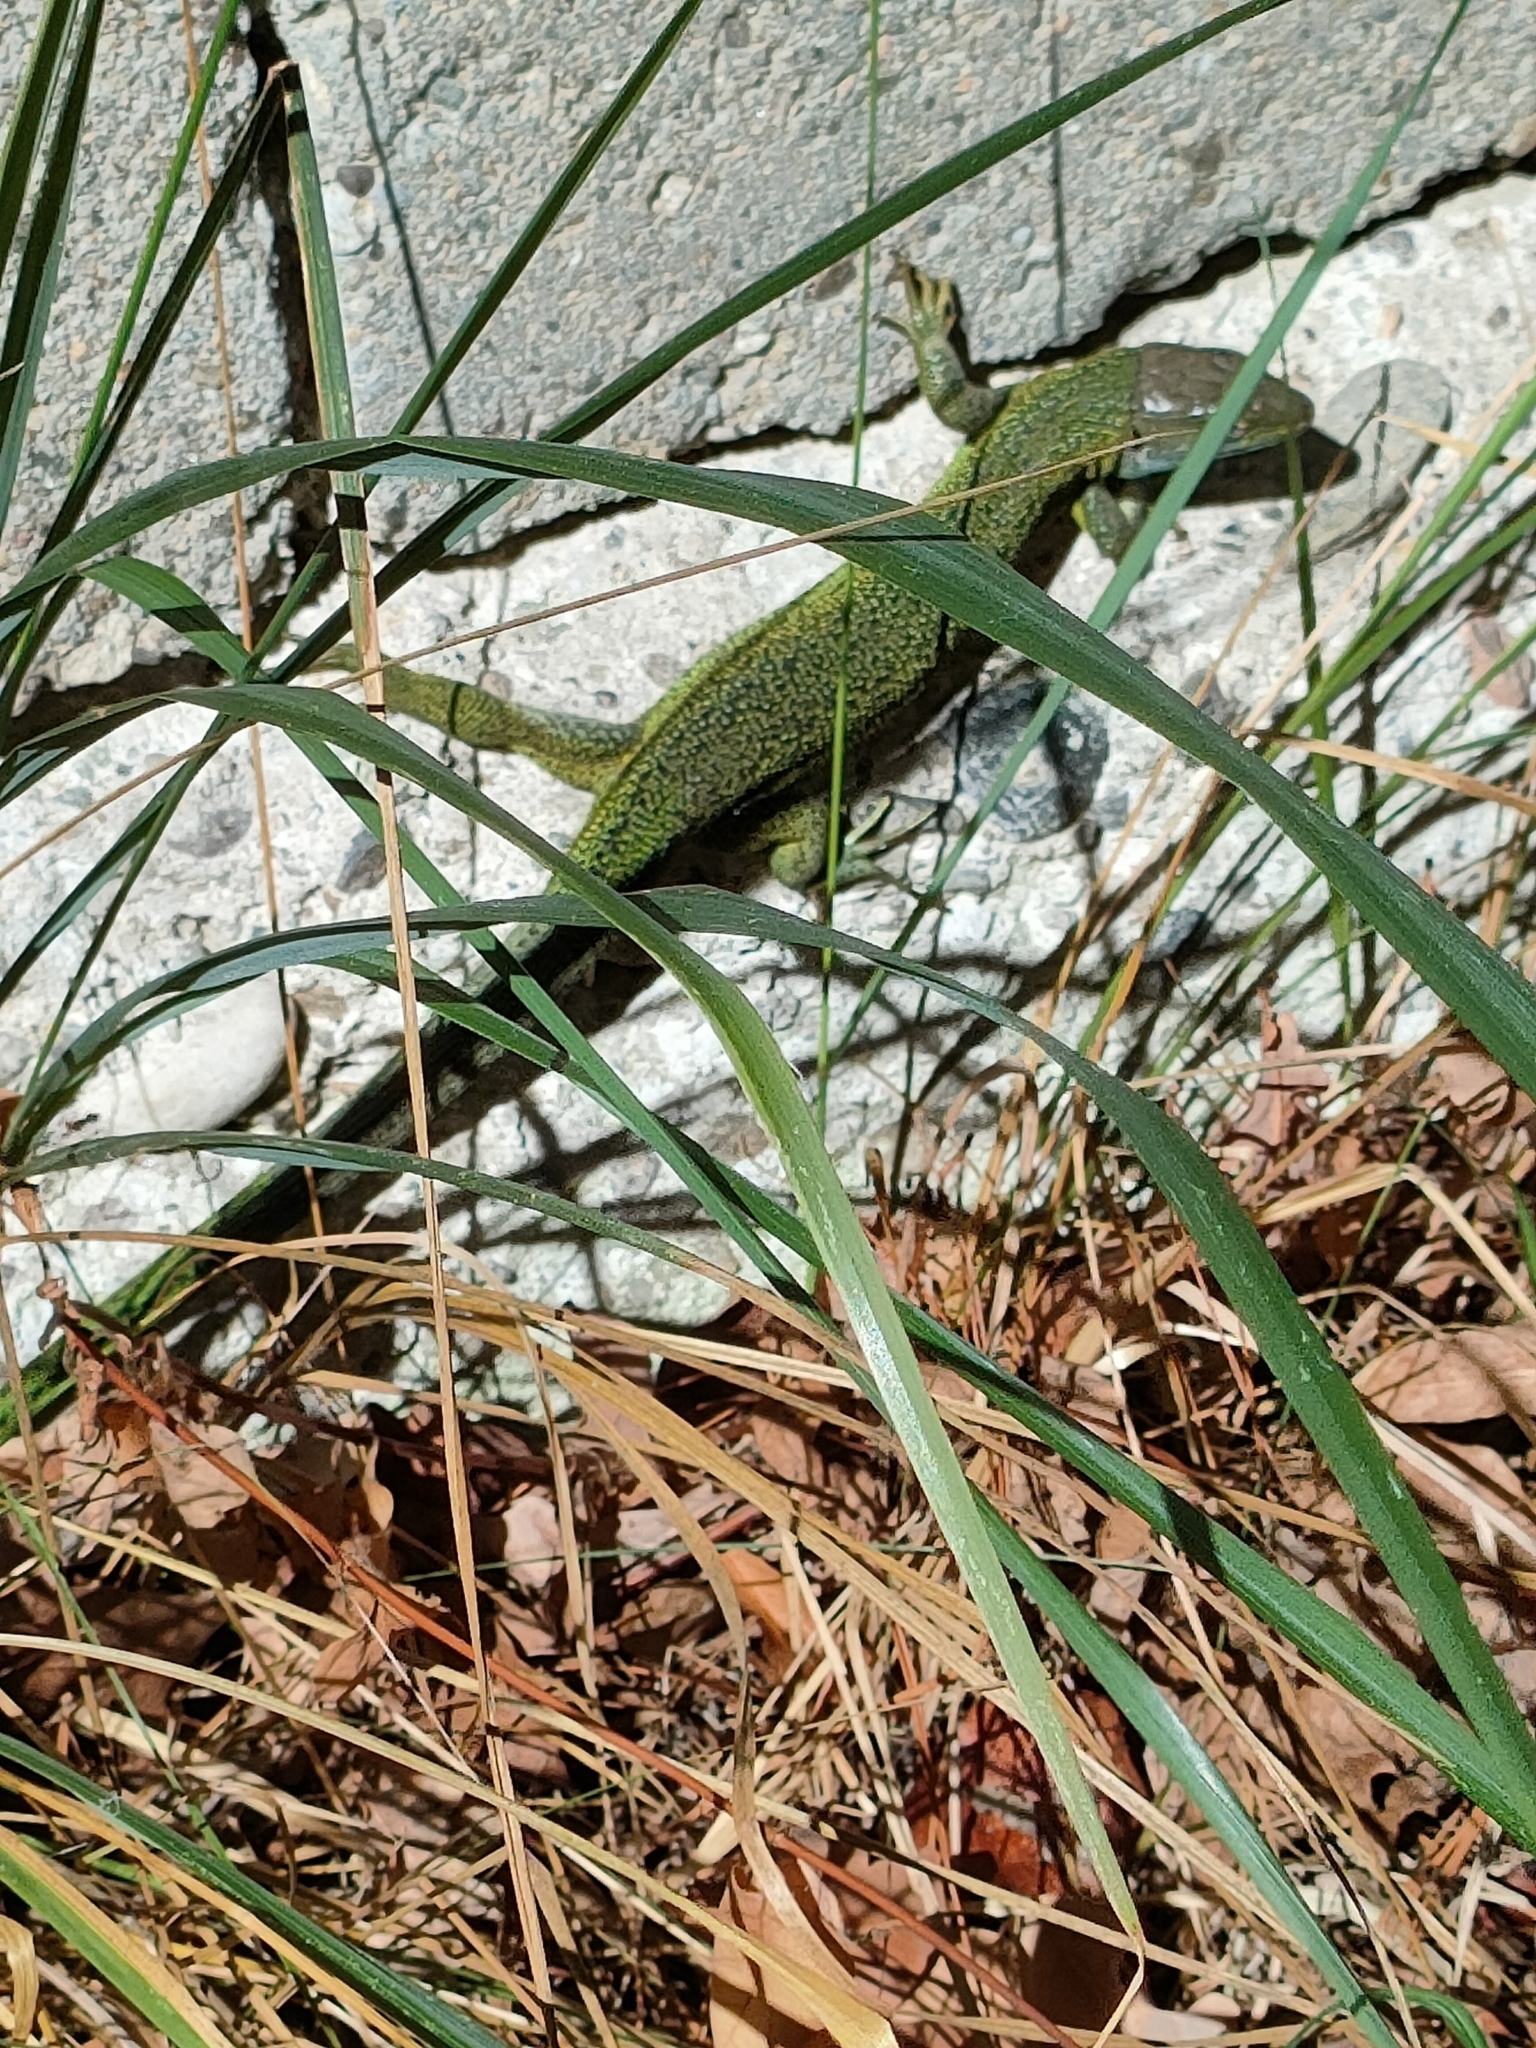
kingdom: Animalia
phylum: Chordata
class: Squamata
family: Lacertidae
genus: Lacerta
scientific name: Lacerta bilineata
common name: Western green lizard
